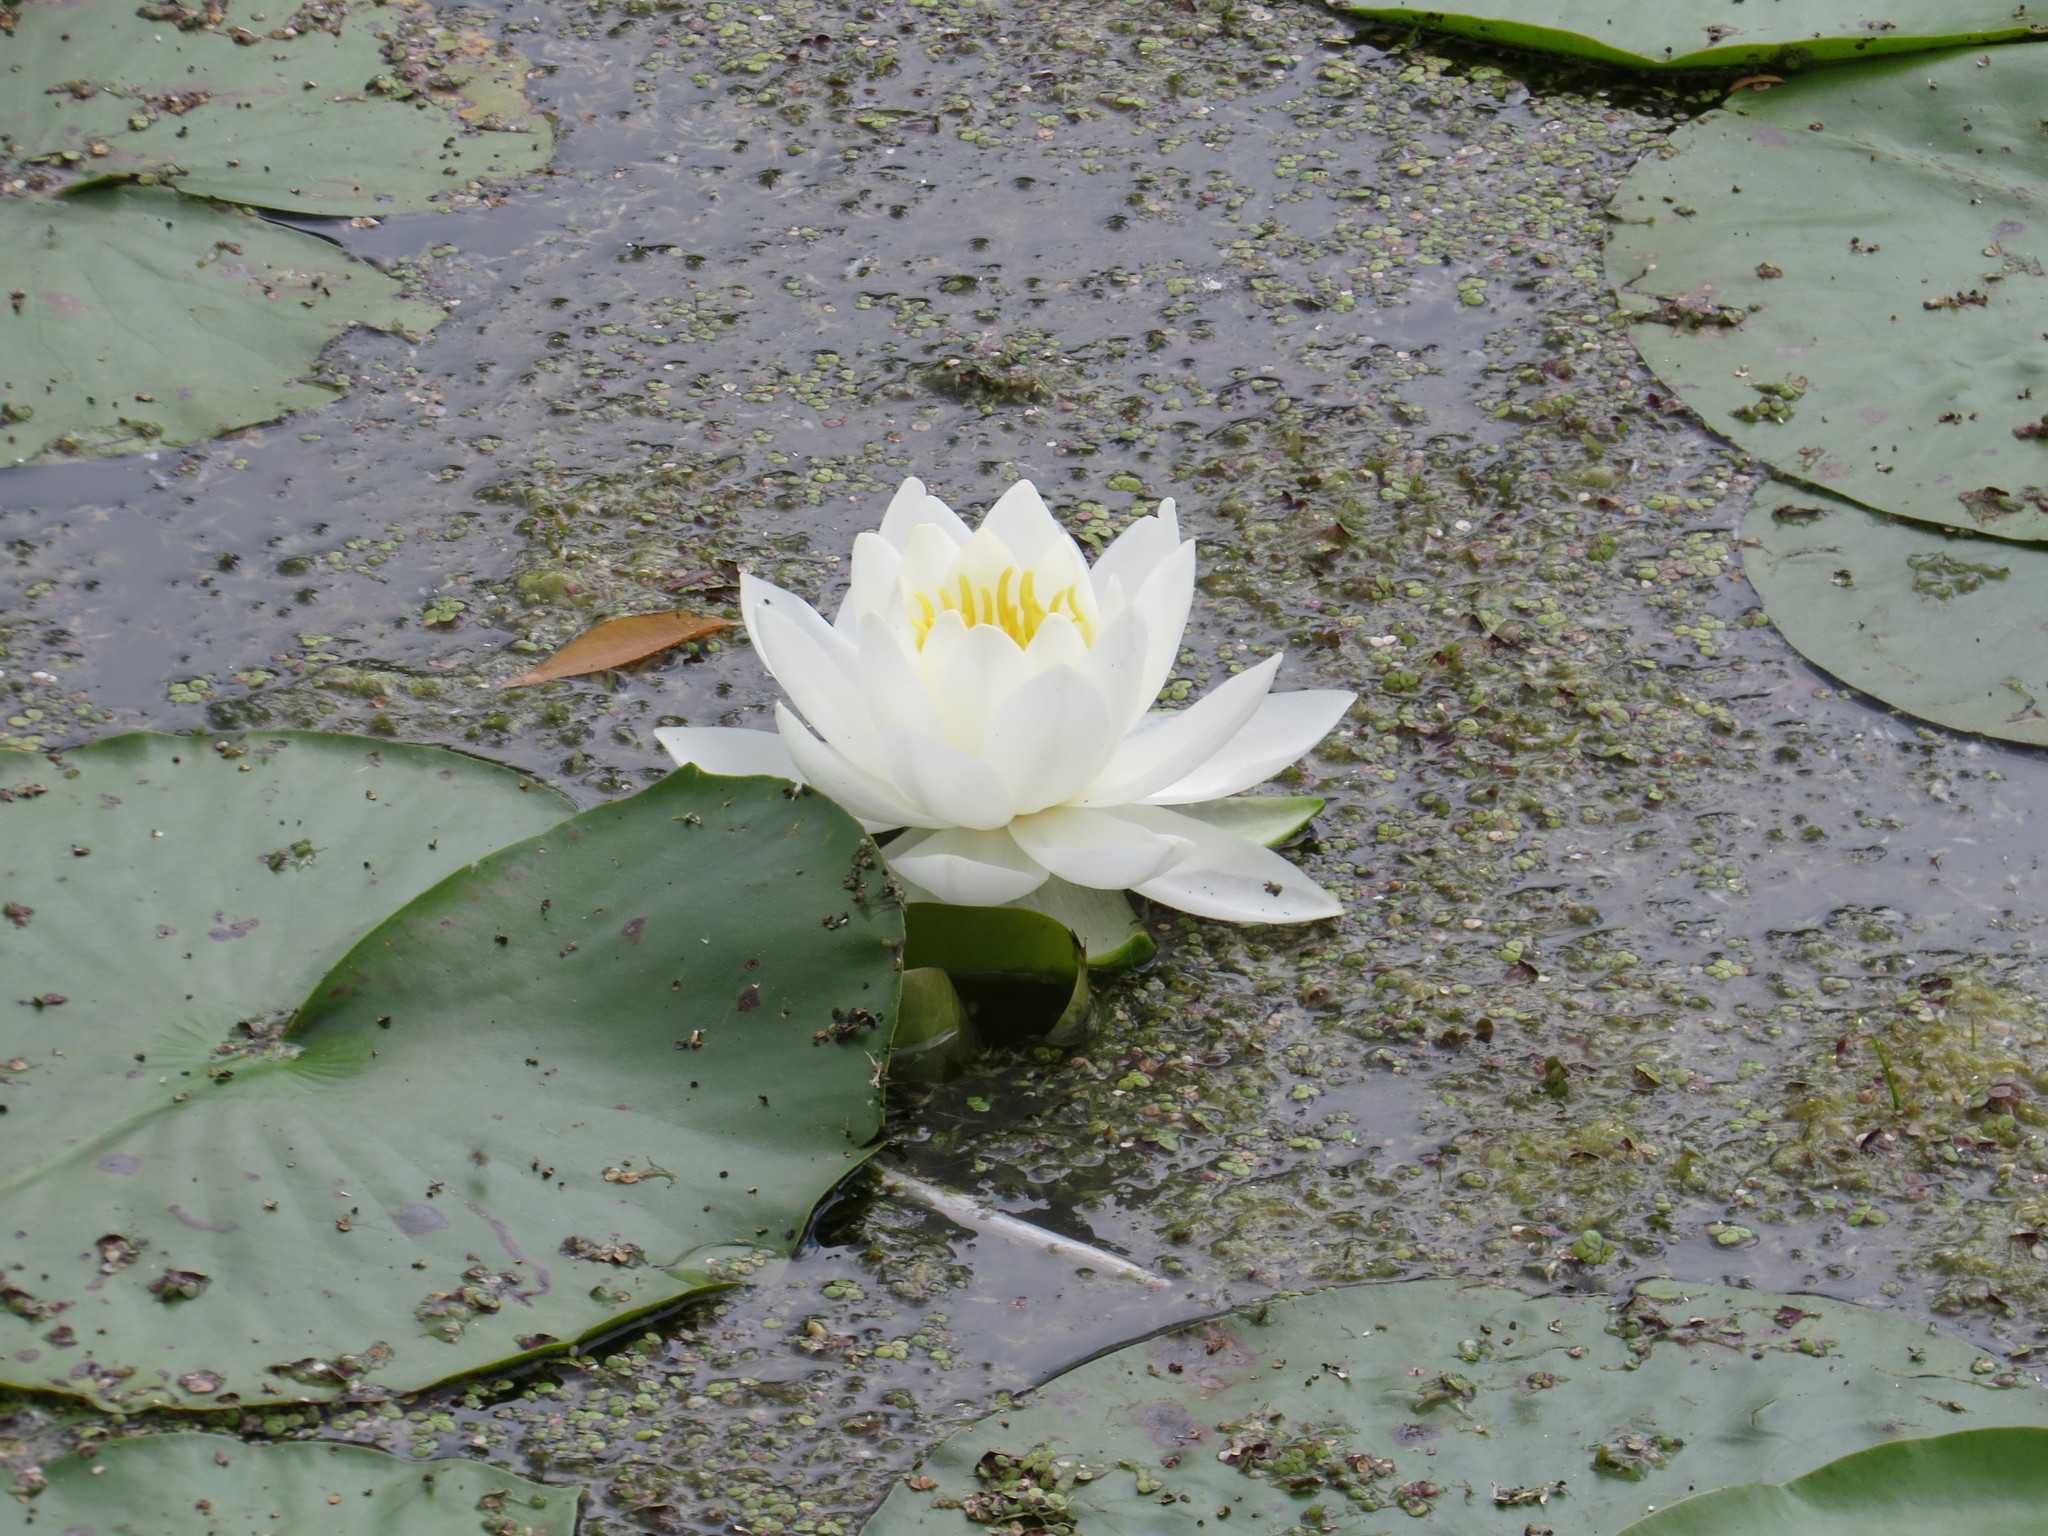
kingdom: Plantae
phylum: Tracheophyta
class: Magnoliopsida
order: Nymphaeales
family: Nymphaeaceae
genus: Nymphaea
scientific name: Nymphaea odorata
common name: Fragrant water-lily
